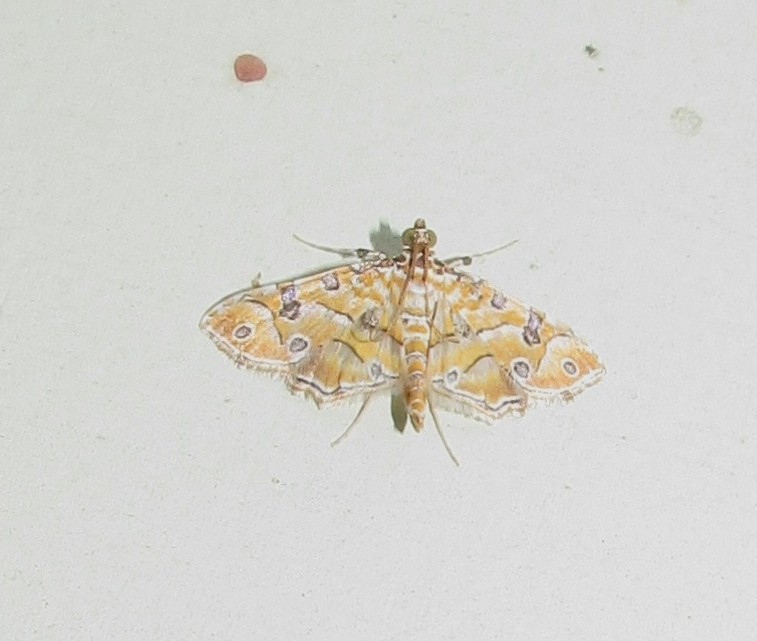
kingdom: Animalia
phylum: Arthropoda
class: Insecta
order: Lepidoptera
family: Crambidae
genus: Ommatospila
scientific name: Ommatospila narcaeusalis
